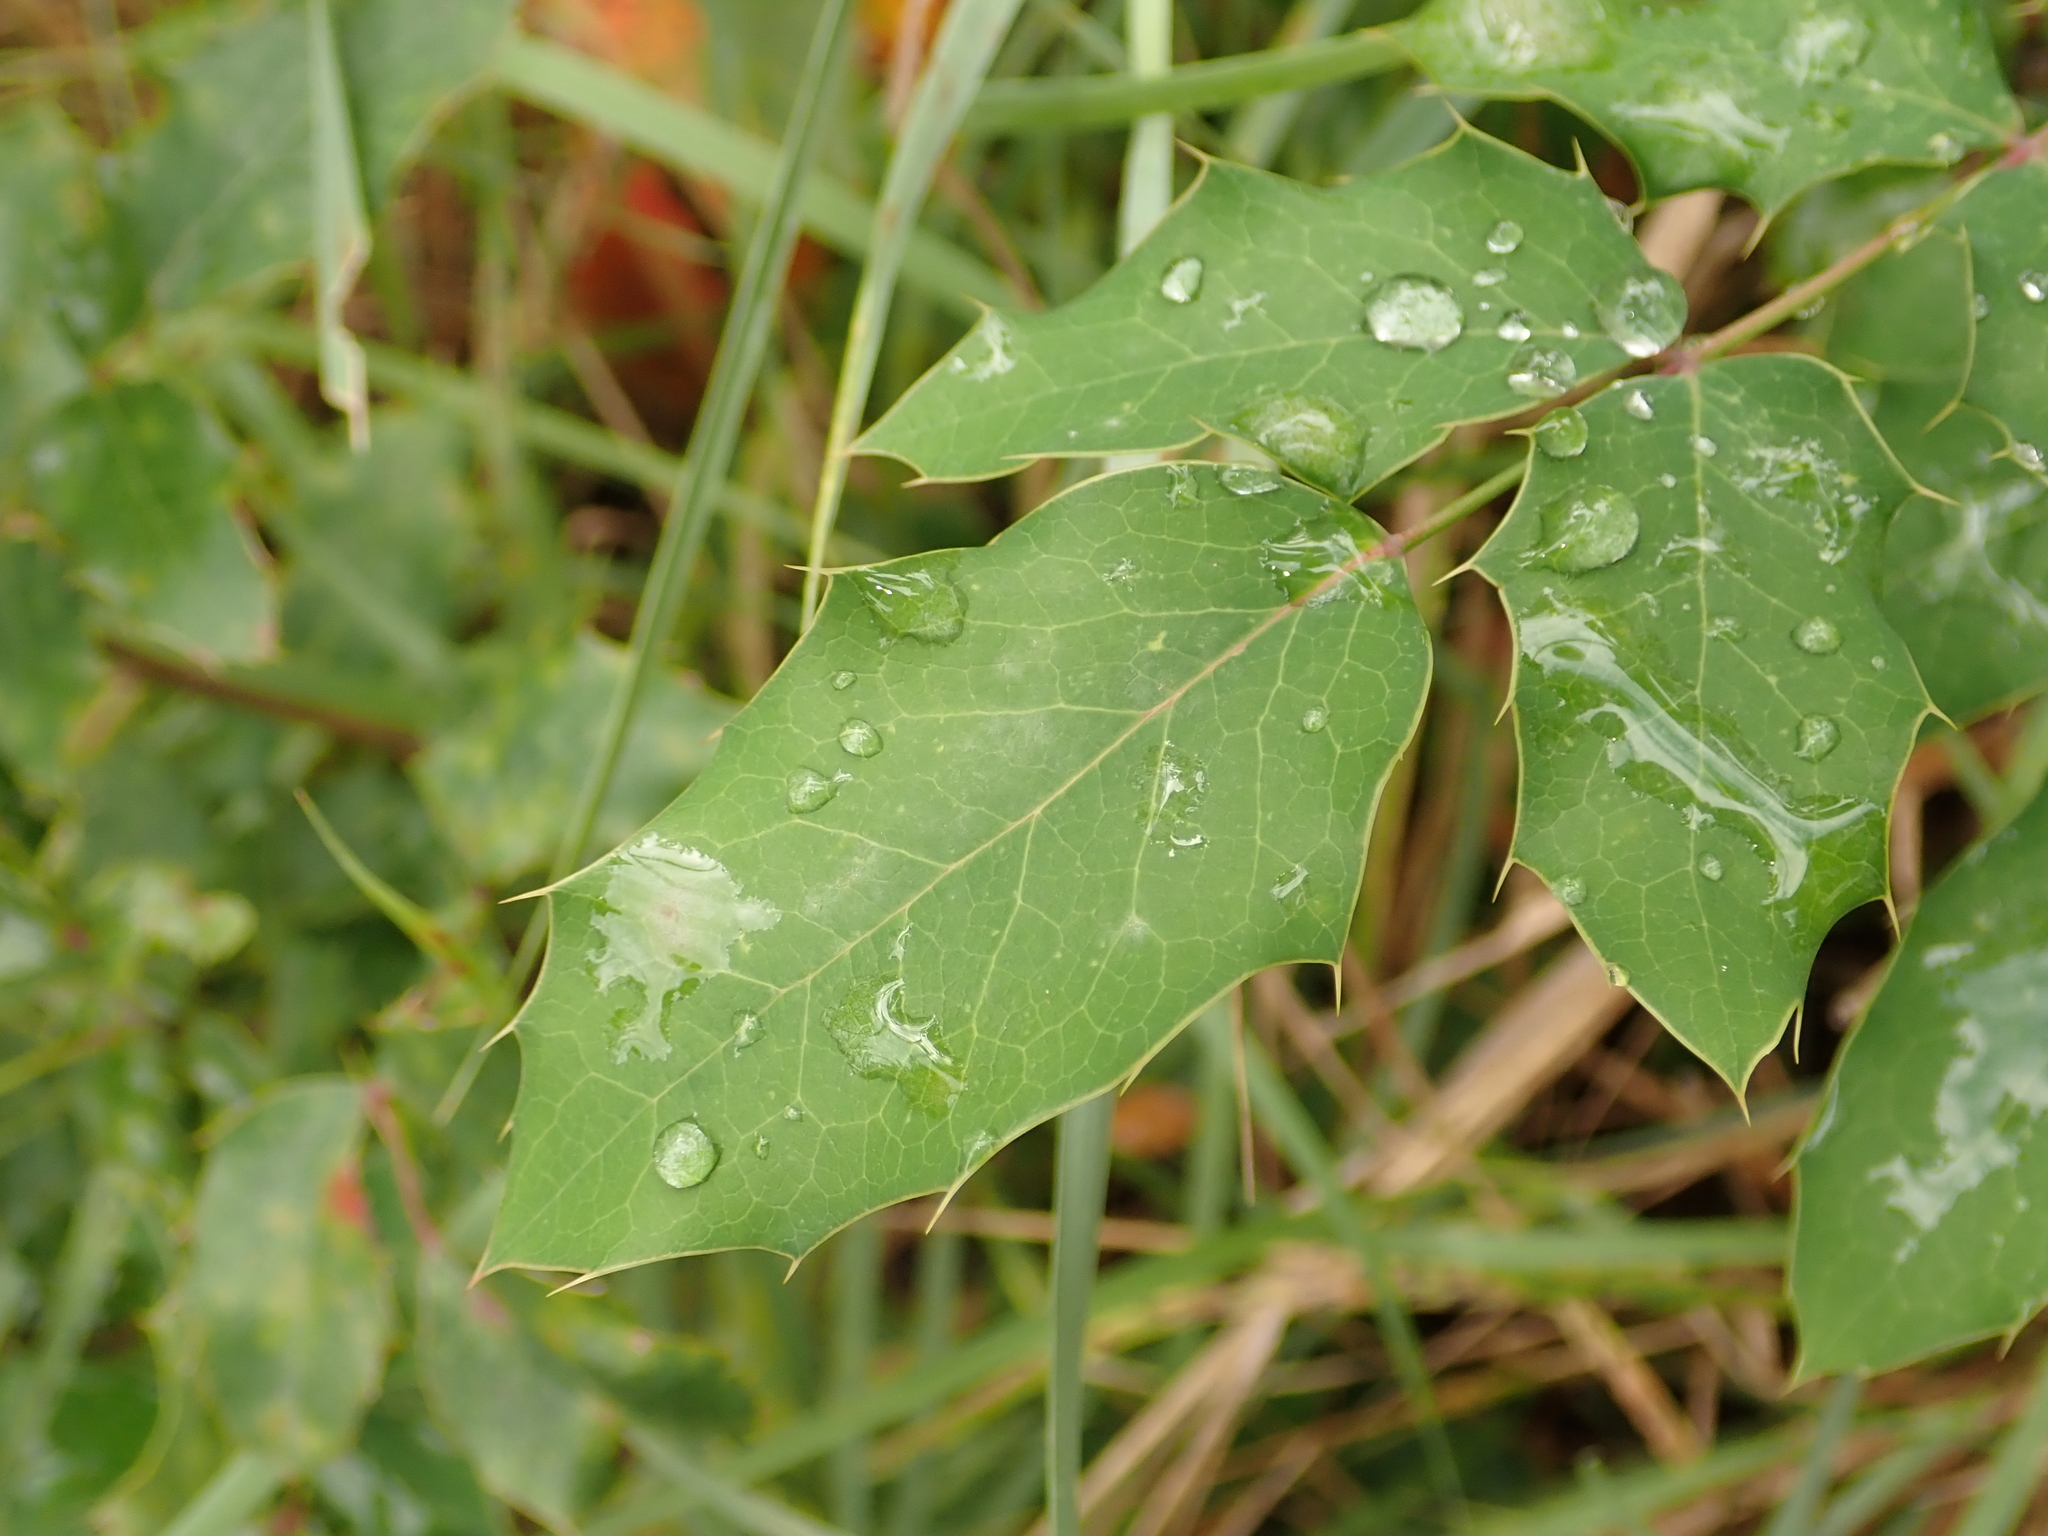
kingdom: Plantae
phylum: Tracheophyta
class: Magnoliopsida
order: Ranunculales
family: Berberidaceae
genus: Mahonia
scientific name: Mahonia aquifolium
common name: Oregon-grape
